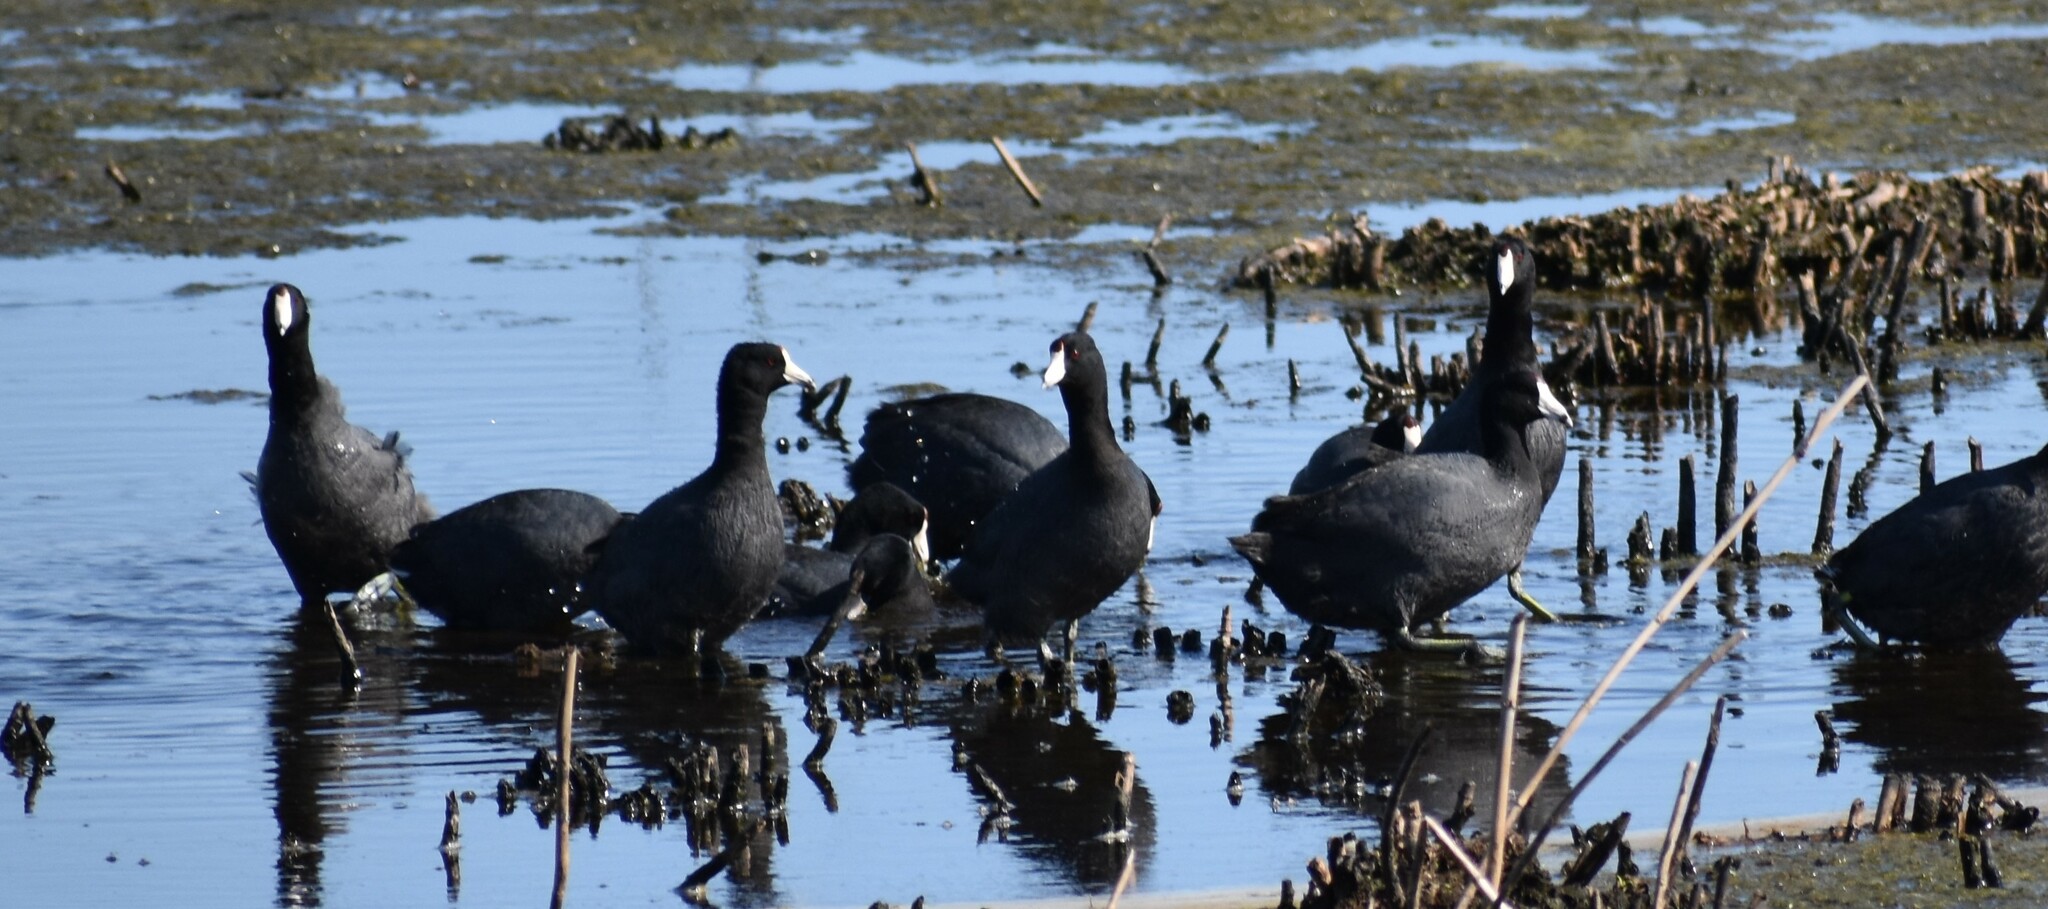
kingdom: Animalia
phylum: Chordata
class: Aves
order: Gruiformes
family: Rallidae
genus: Gallinula
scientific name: Gallinula chloropus
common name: Common moorhen
